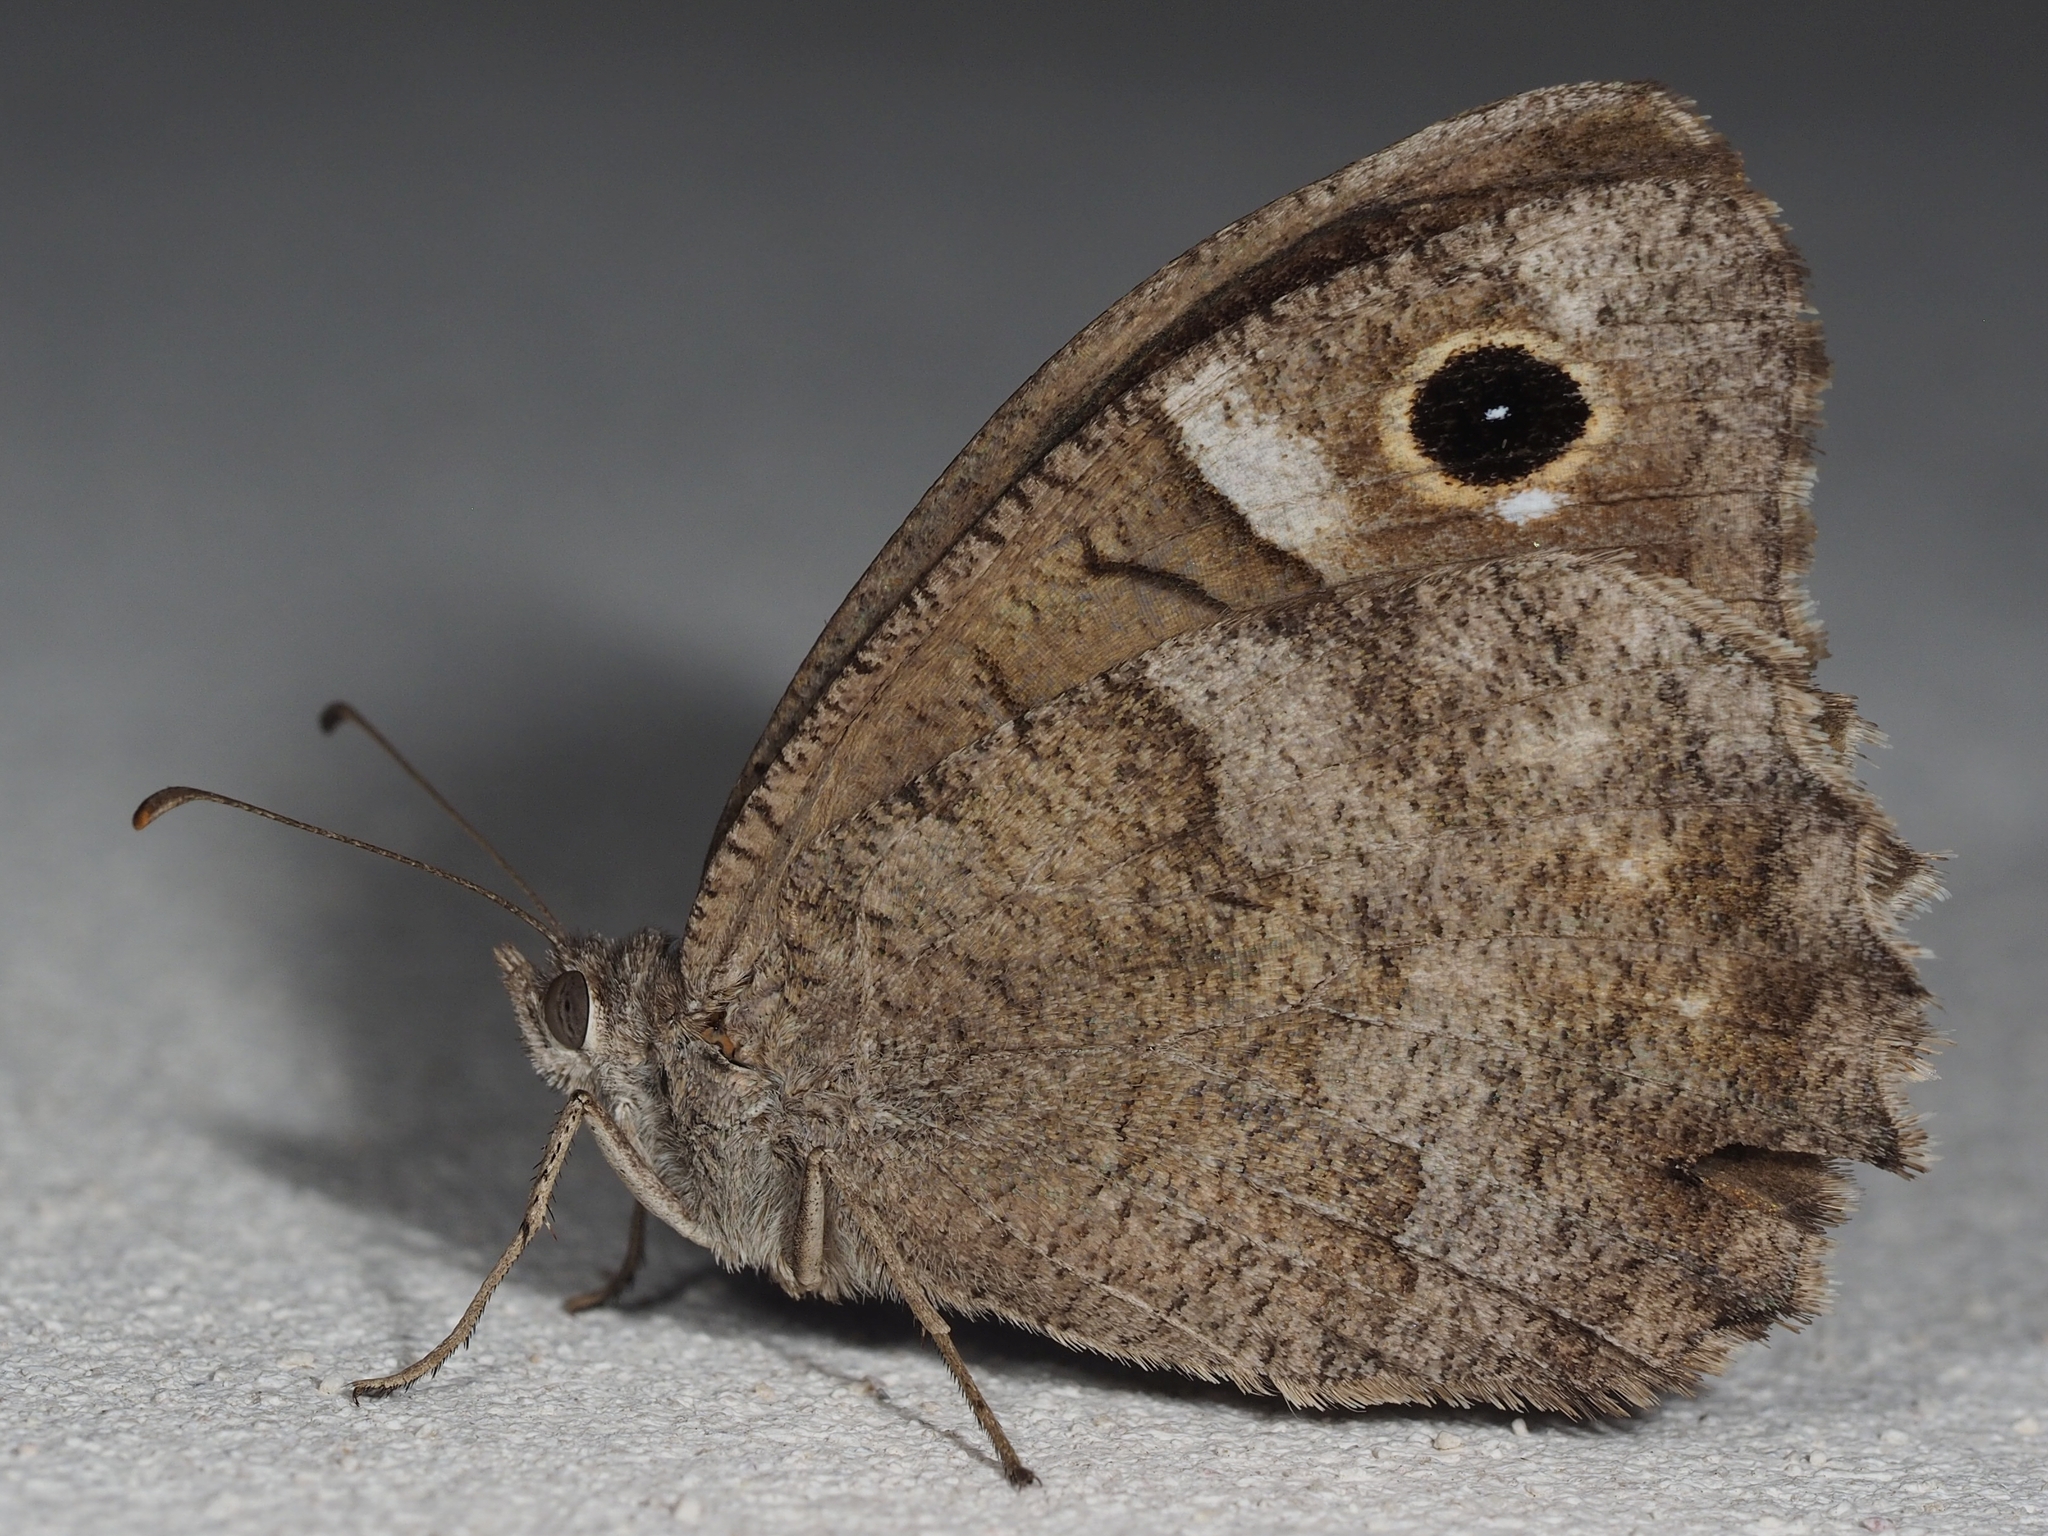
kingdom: Animalia
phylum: Arthropoda
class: Insecta
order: Lepidoptera
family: Nymphalidae
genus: Hipparchia
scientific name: Hipparchia statilinus
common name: Tree grayling
